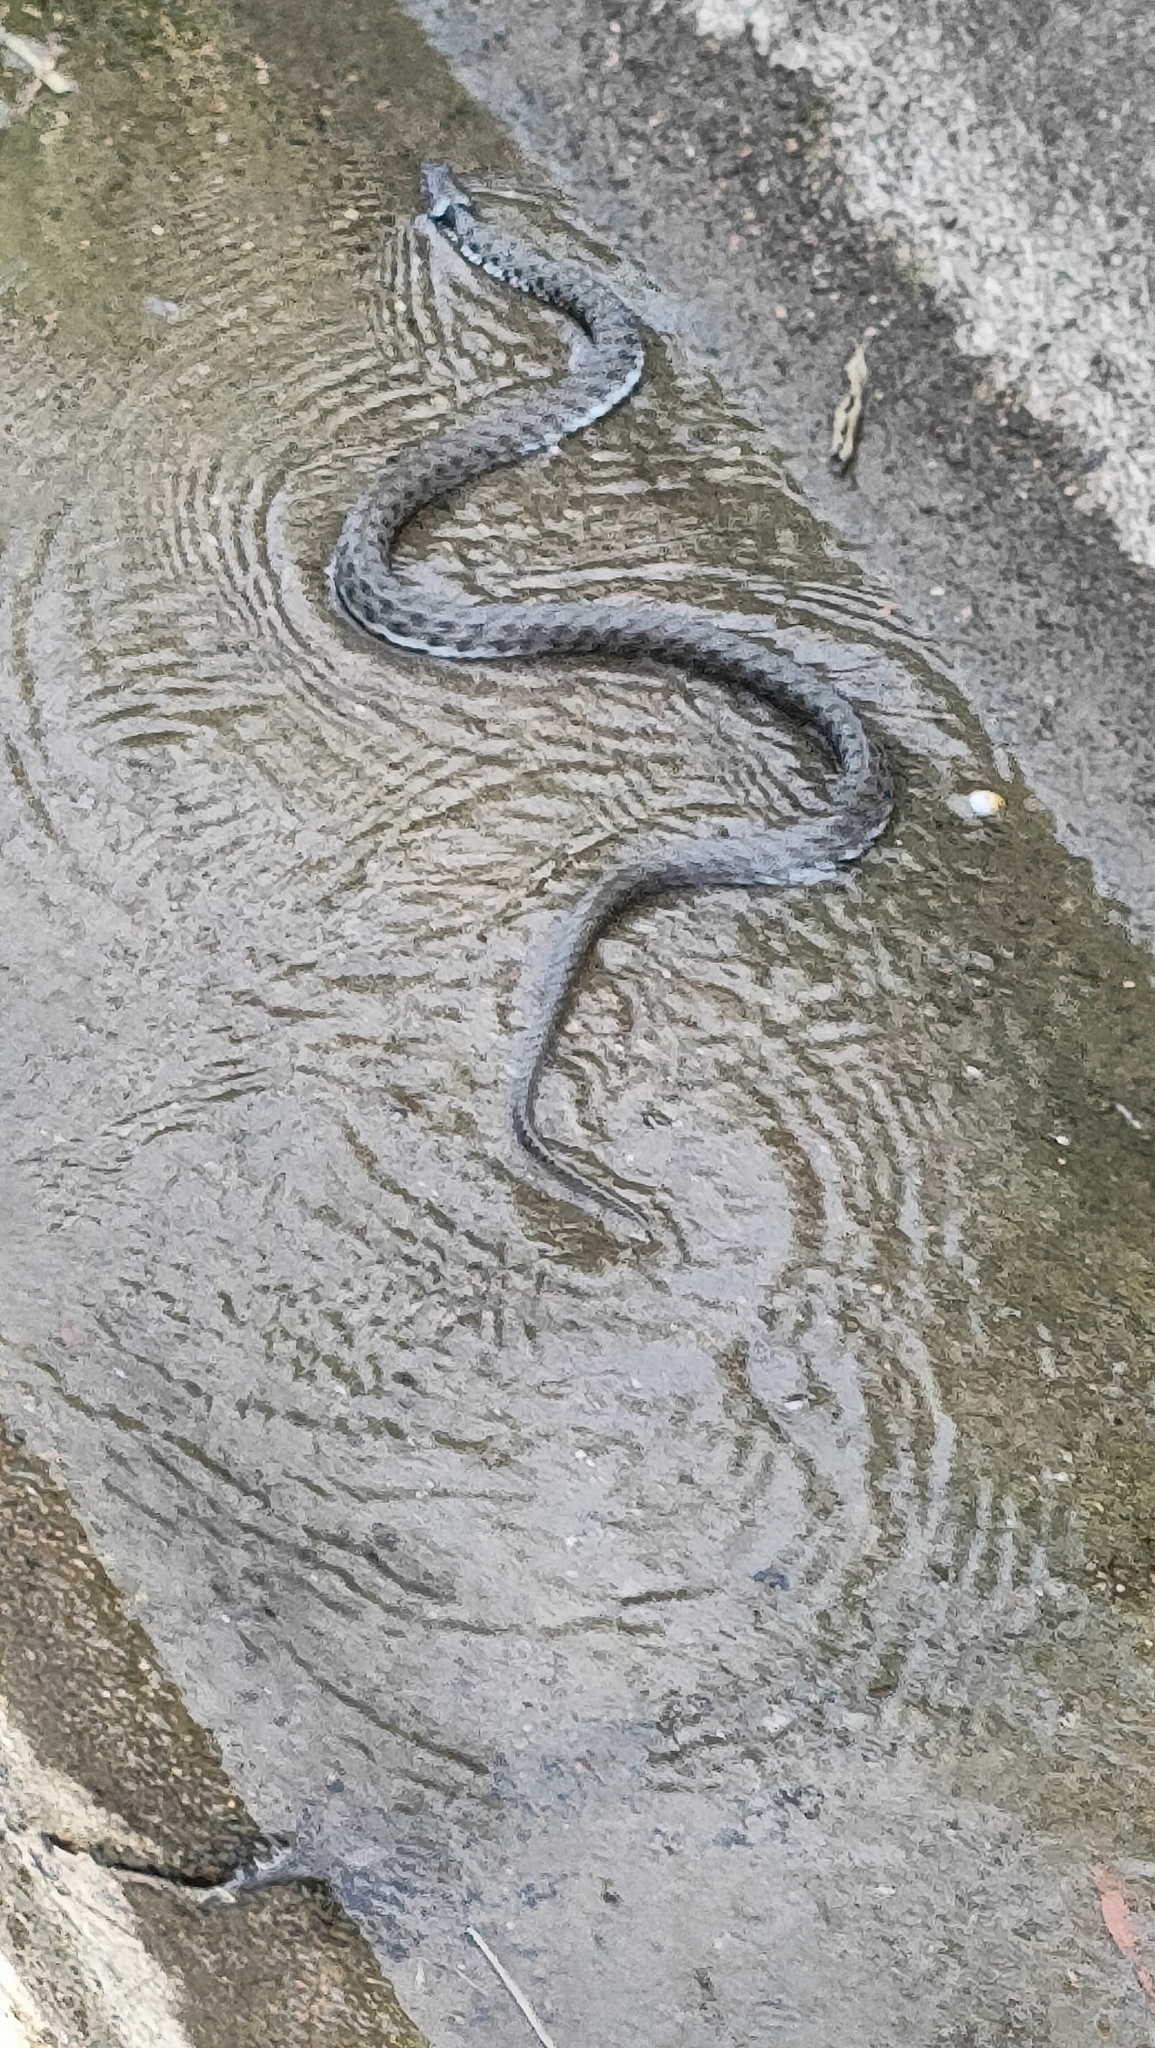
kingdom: Animalia
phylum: Chordata
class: Squamata
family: Colubridae
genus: Natrix
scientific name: Natrix helvetica
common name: Banded grass snake
